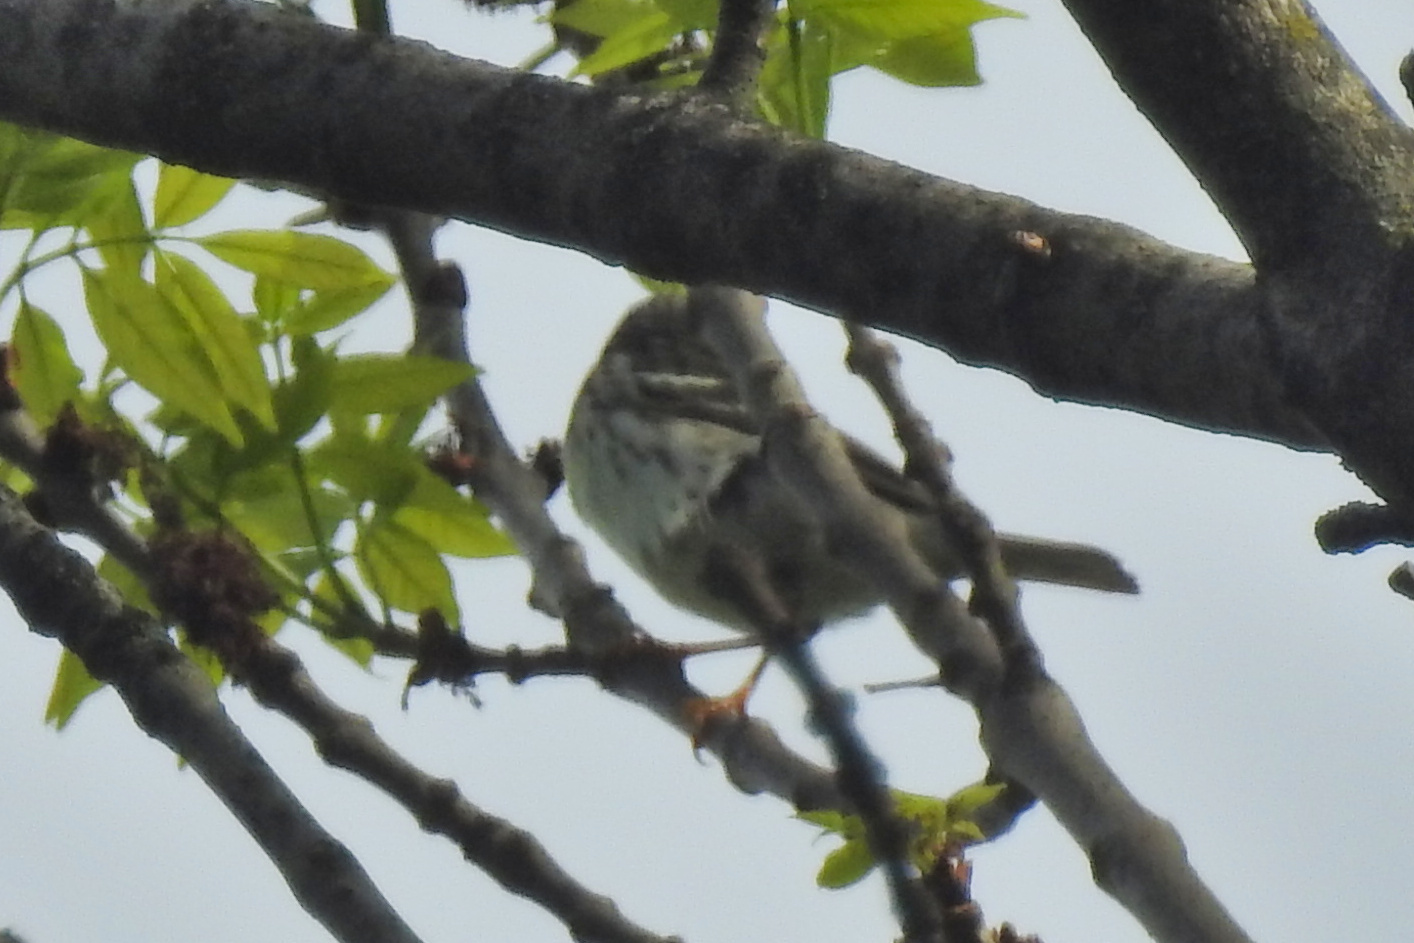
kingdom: Animalia
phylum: Chordata
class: Aves
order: Passeriformes
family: Parulidae
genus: Setophaga
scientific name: Setophaga striata
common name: Blackpoll warbler
